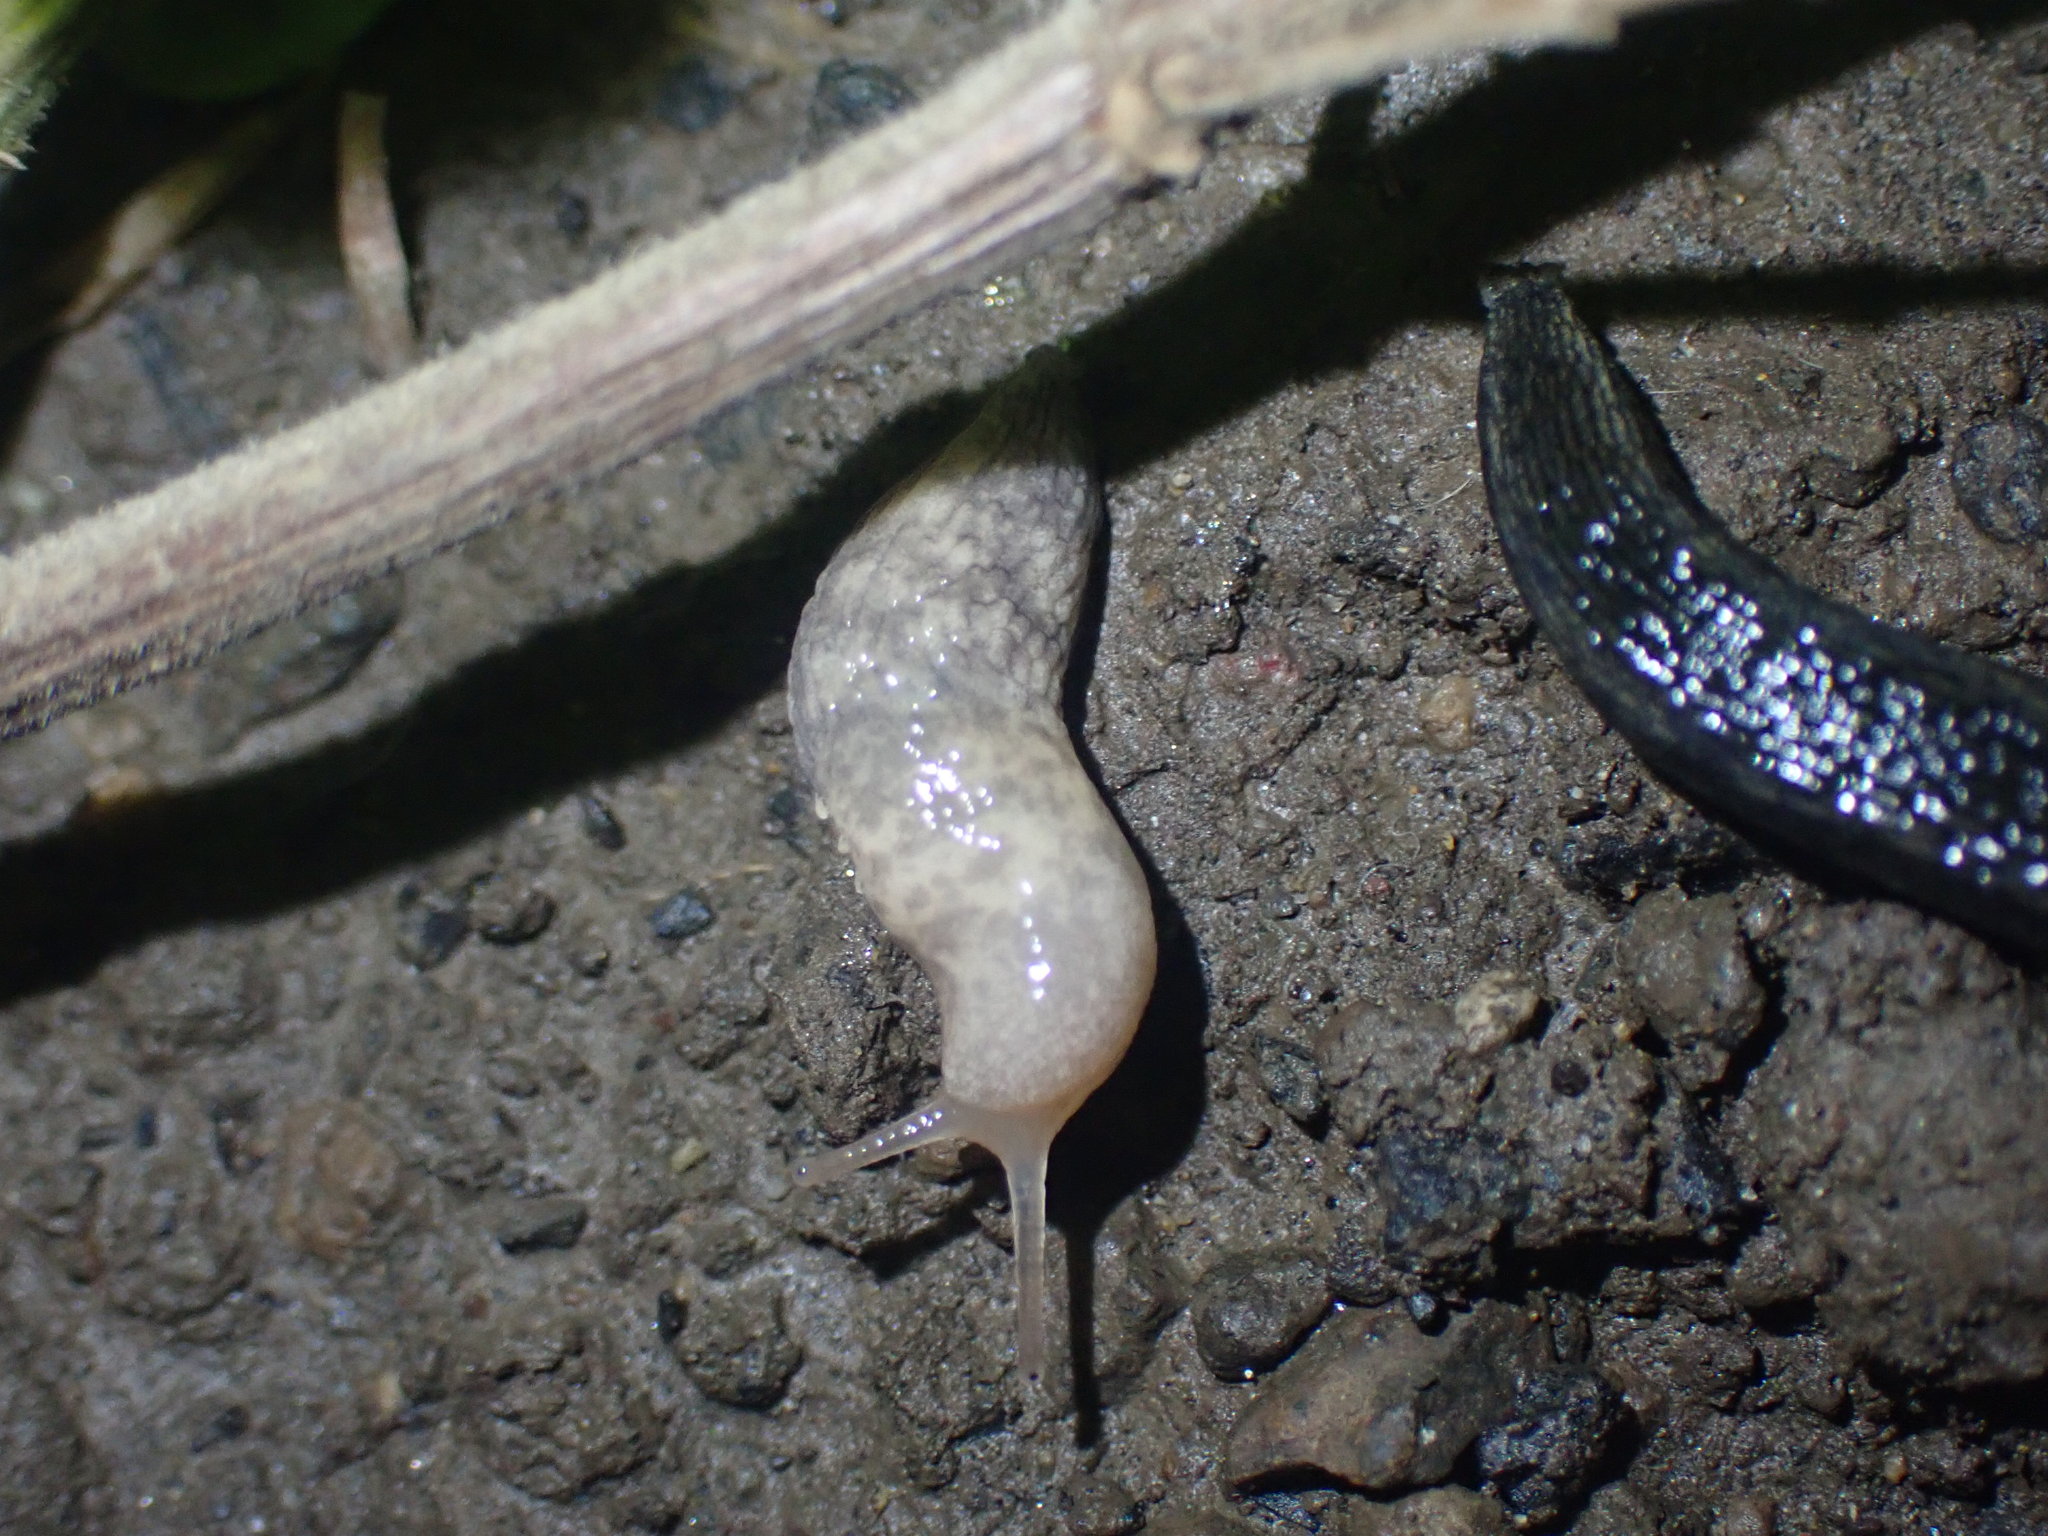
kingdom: Animalia
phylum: Mollusca
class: Gastropoda
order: Stylommatophora
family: Agriolimacidae
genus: Deroceras
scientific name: Deroceras reticulatum
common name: Gray field slug
